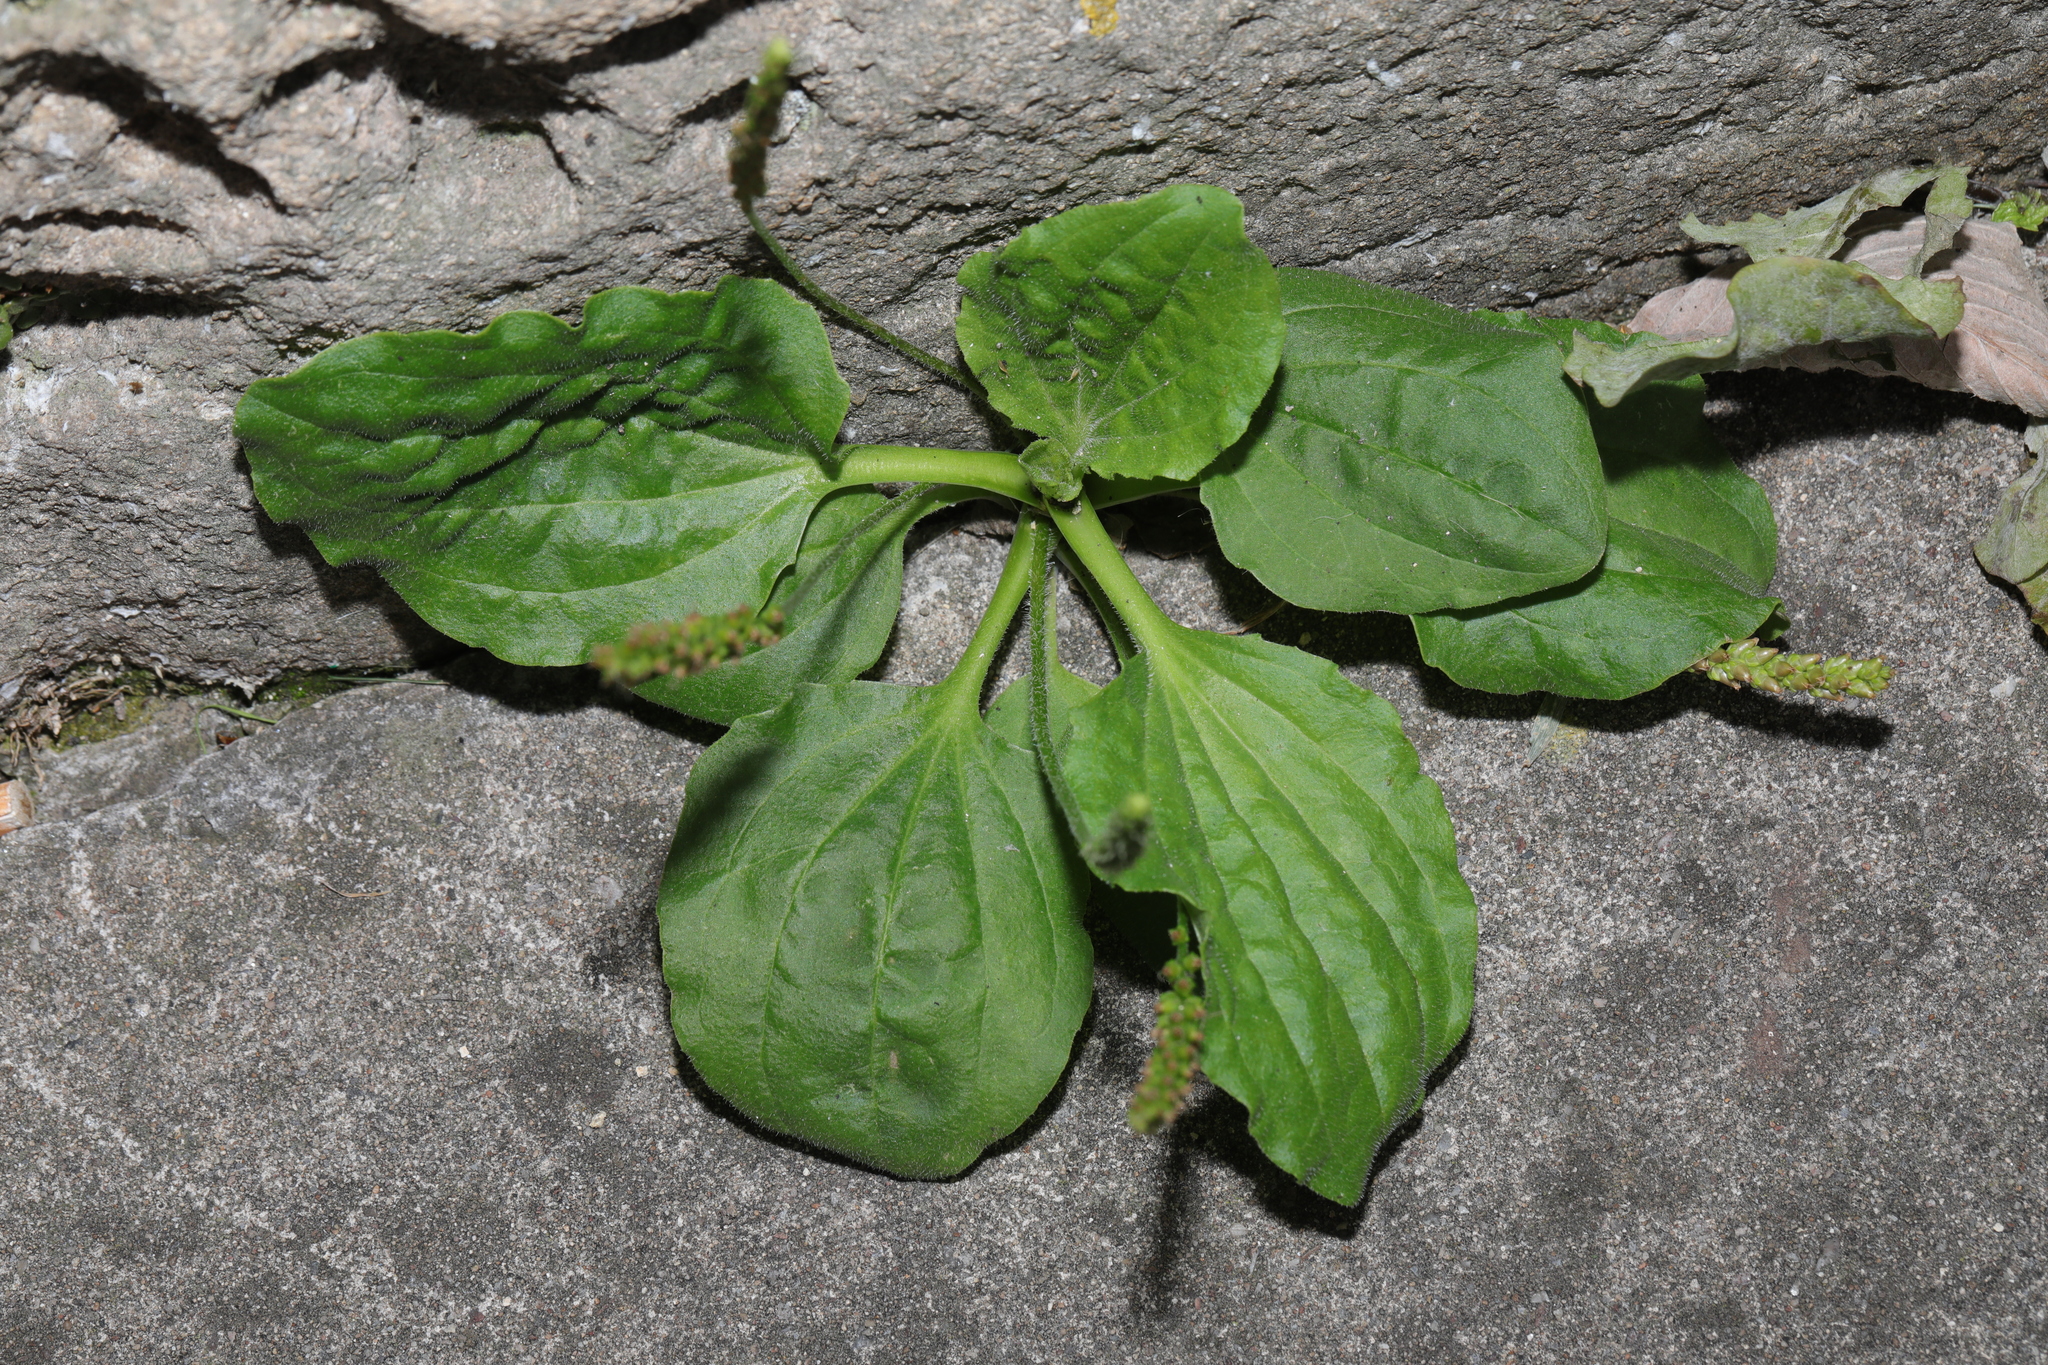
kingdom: Plantae
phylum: Tracheophyta
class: Magnoliopsida
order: Lamiales
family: Plantaginaceae
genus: Plantago
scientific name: Plantago major
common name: Common plantain
